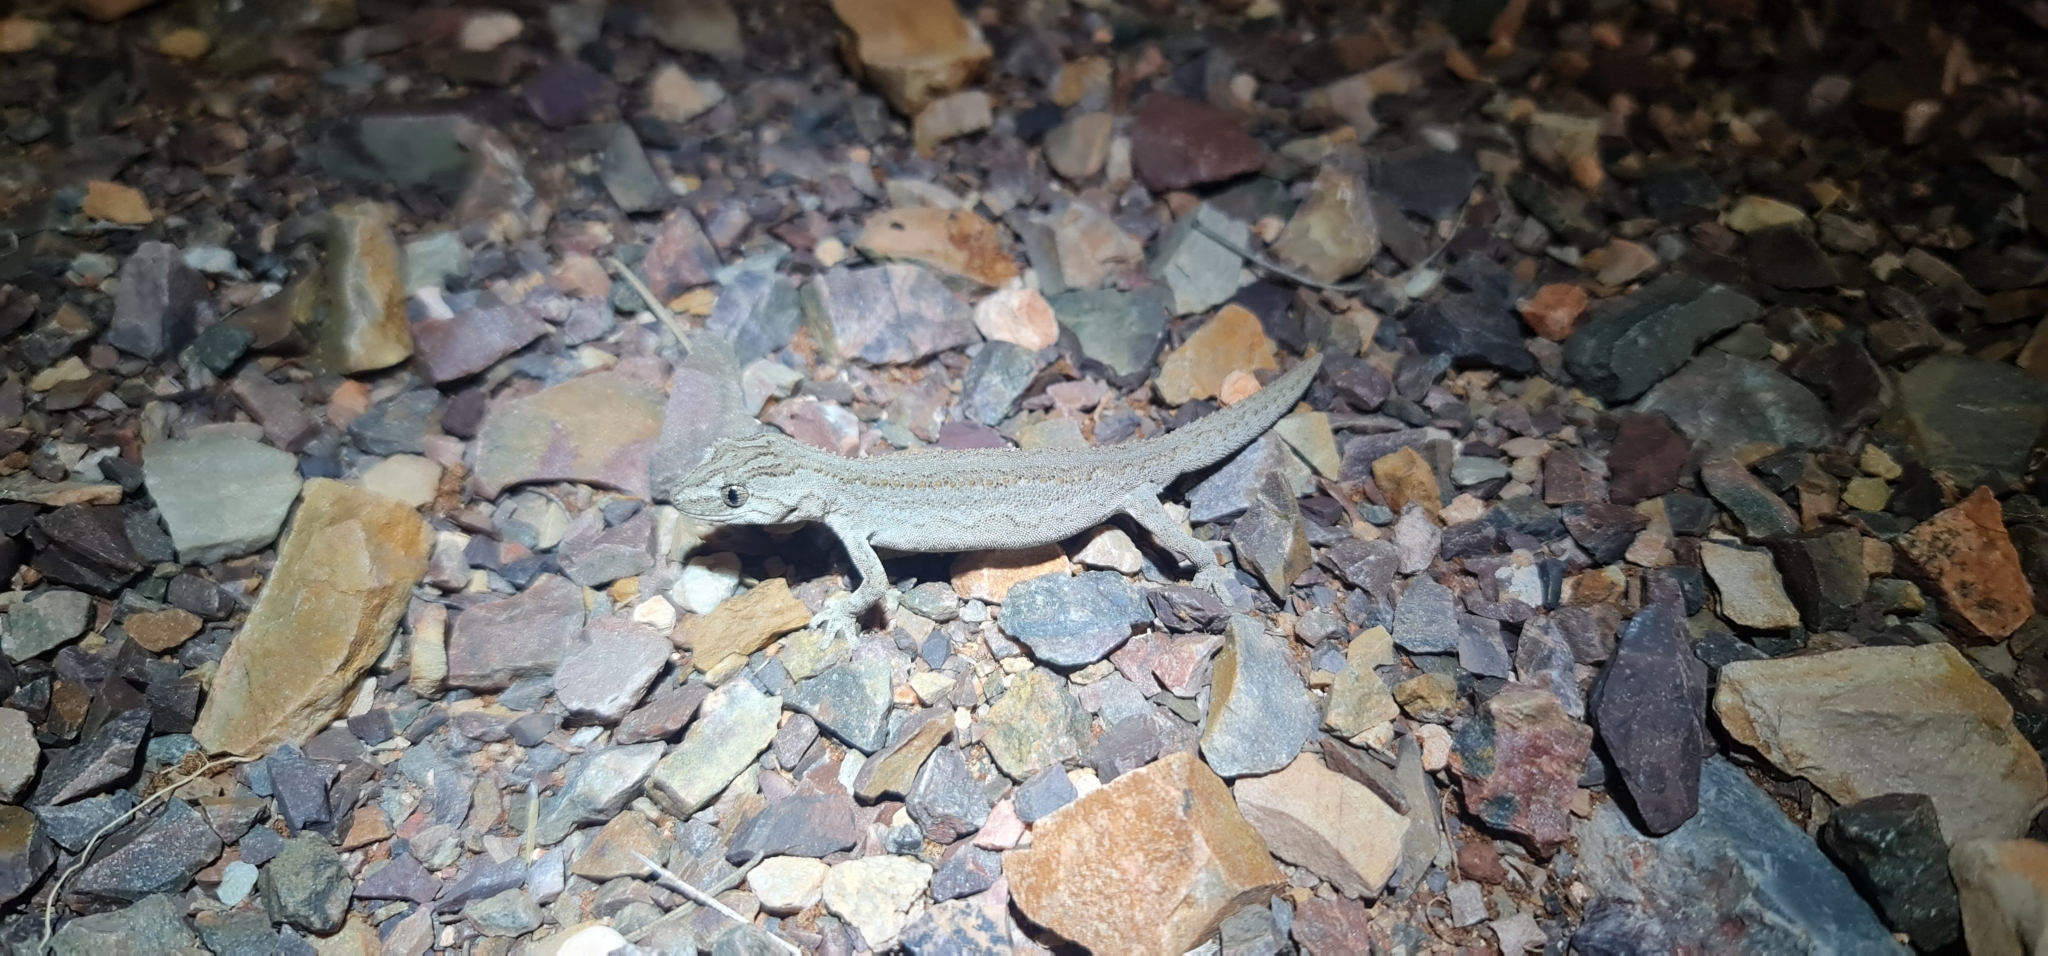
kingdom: Animalia
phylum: Chordata
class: Squamata
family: Diplodactylidae
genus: Strophurus
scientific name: Strophurus intermedius
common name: Eastern spiny-tailed gecko
